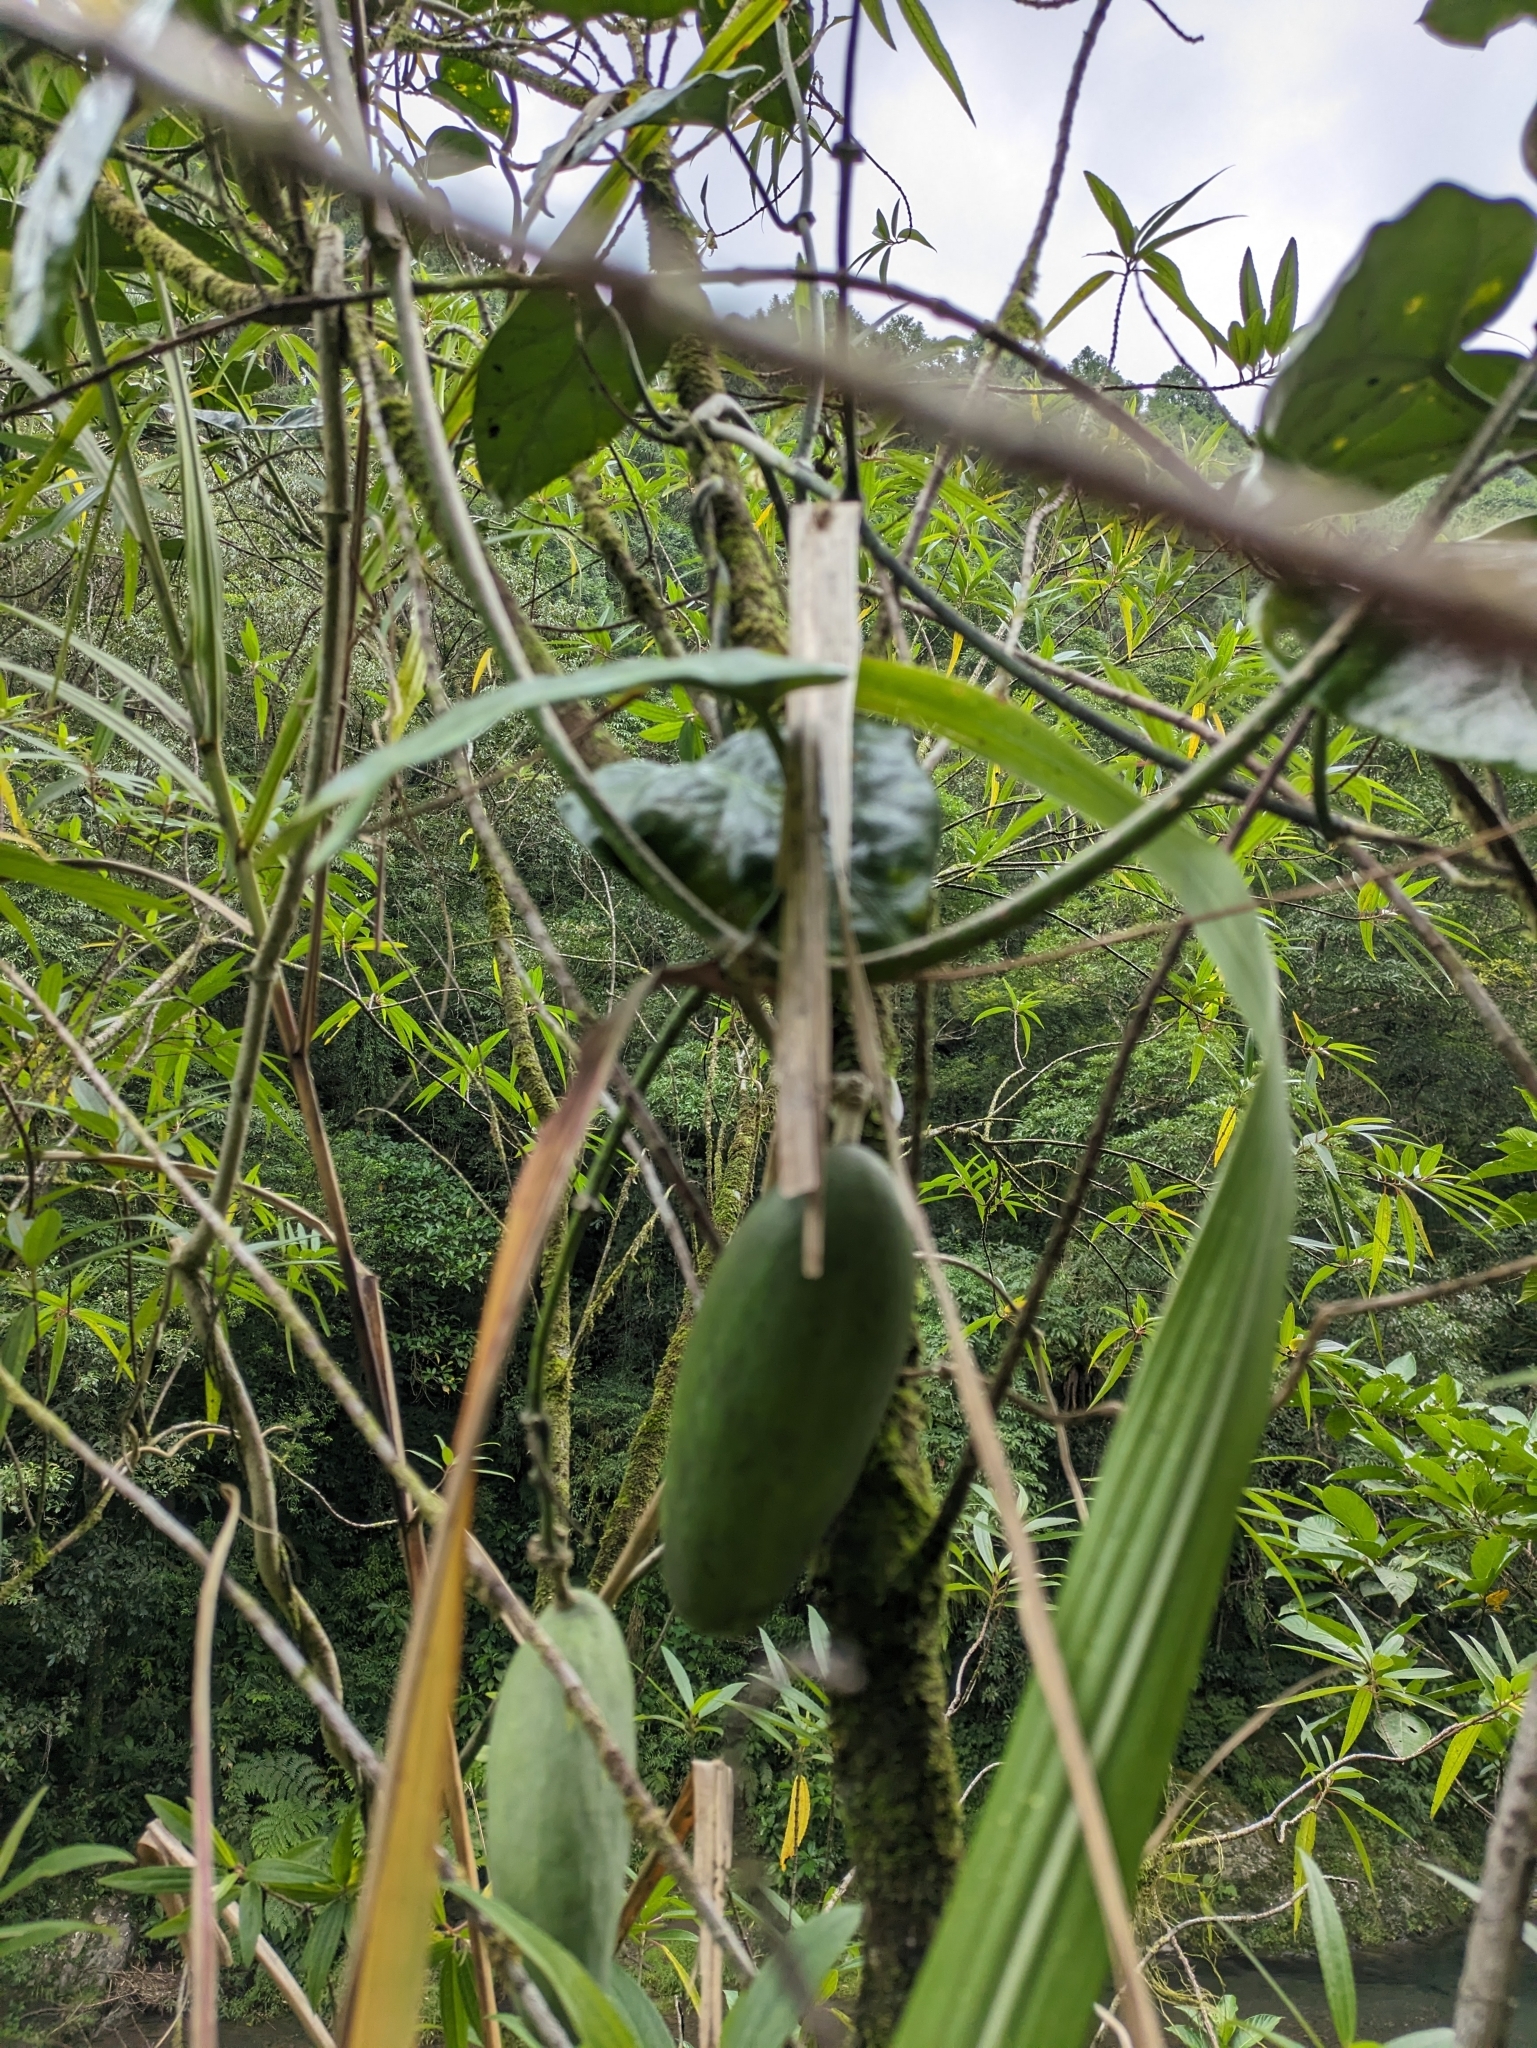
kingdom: Plantae
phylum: Tracheophyta
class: Magnoliopsida
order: Gentianales
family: Apocynaceae
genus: Sinomarsdenia
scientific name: Sinomarsdenia formosana
